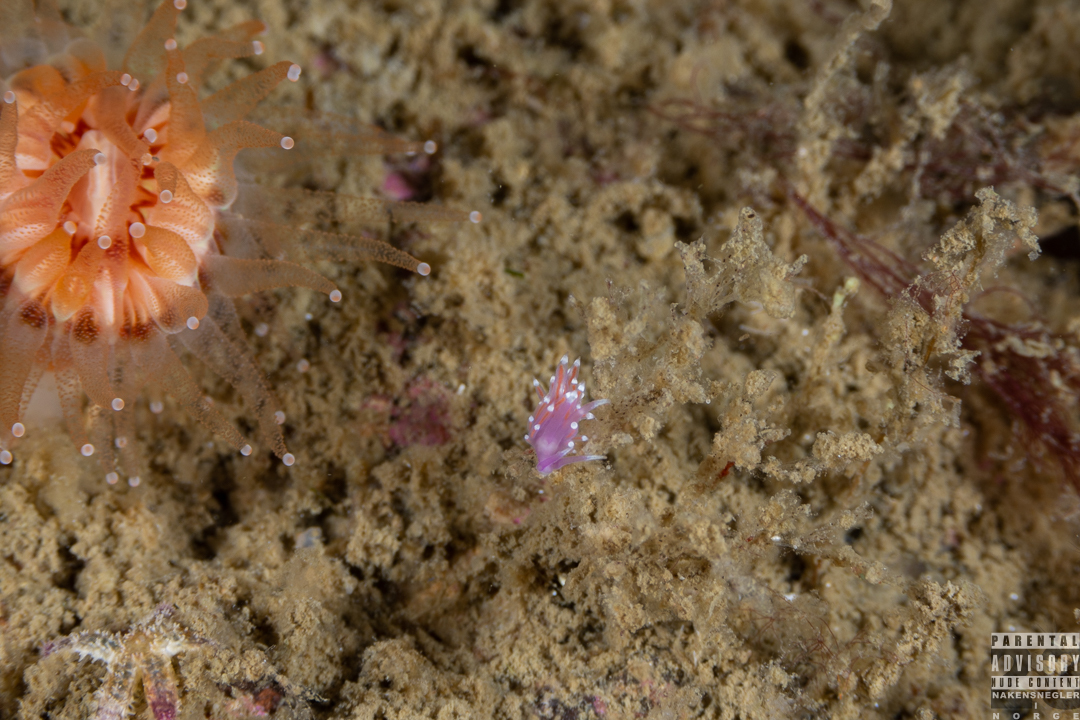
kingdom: Animalia
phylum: Mollusca
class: Gastropoda
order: Nudibranchia
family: Flabellinidae
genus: Edmundsella
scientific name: Edmundsella pedata
